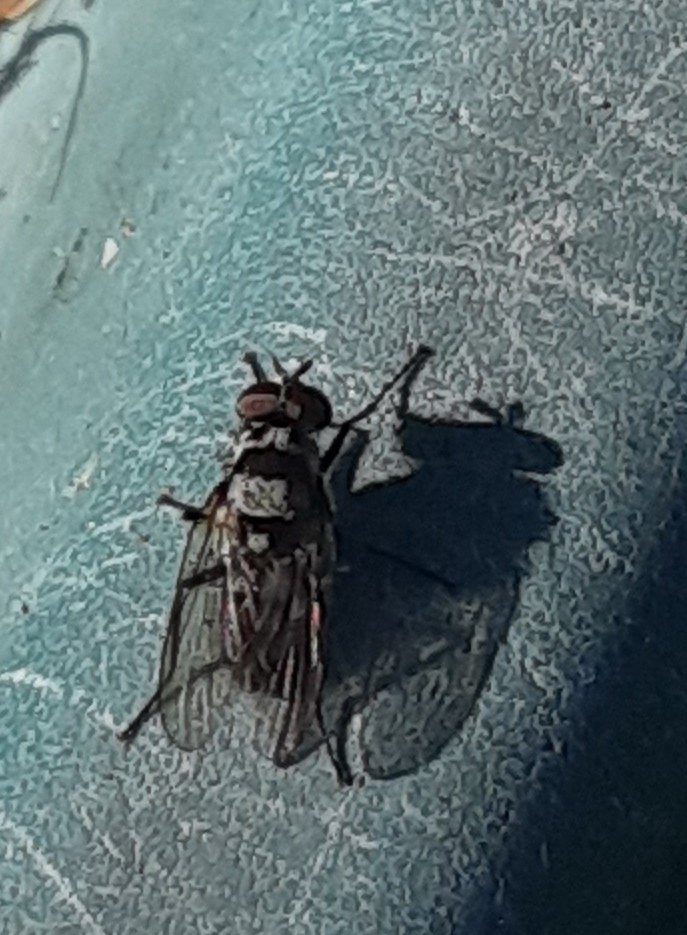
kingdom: Animalia
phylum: Arthropoda
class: Insecta
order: Diptera
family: Anthomyiidae
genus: Anthomyia
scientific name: Anthomyia oculifera
